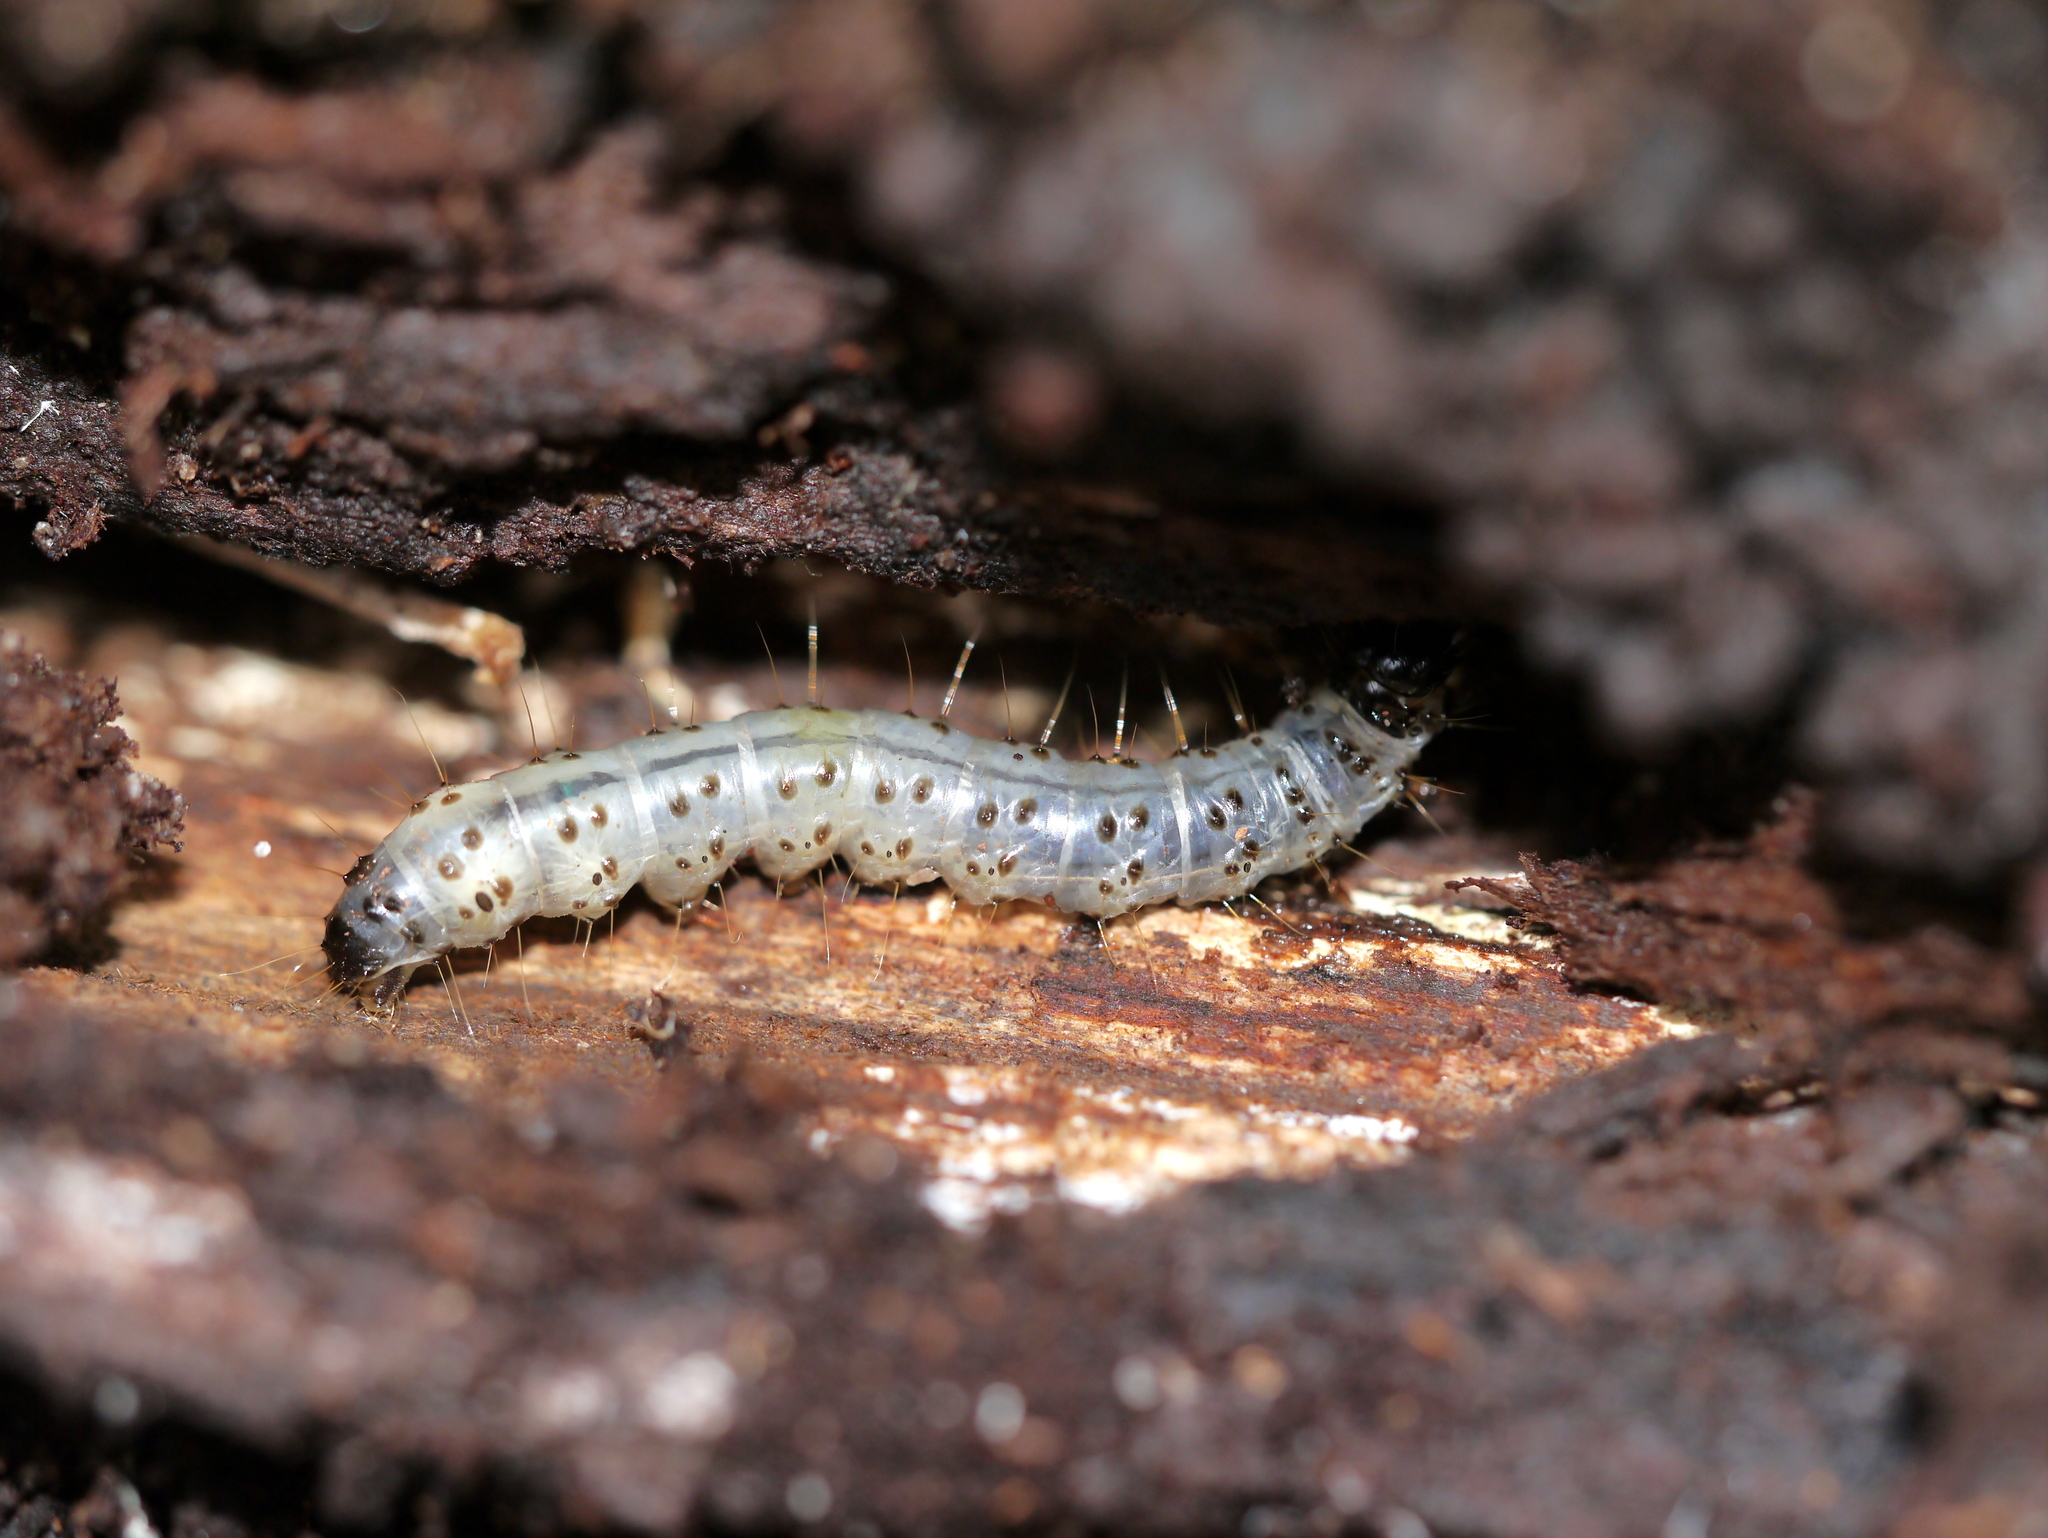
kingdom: Animalia
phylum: Arthropoda
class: Insecta
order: Lepidoptera
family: Erebidae
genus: Scolecocampa
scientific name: Scolecocampa liburna
